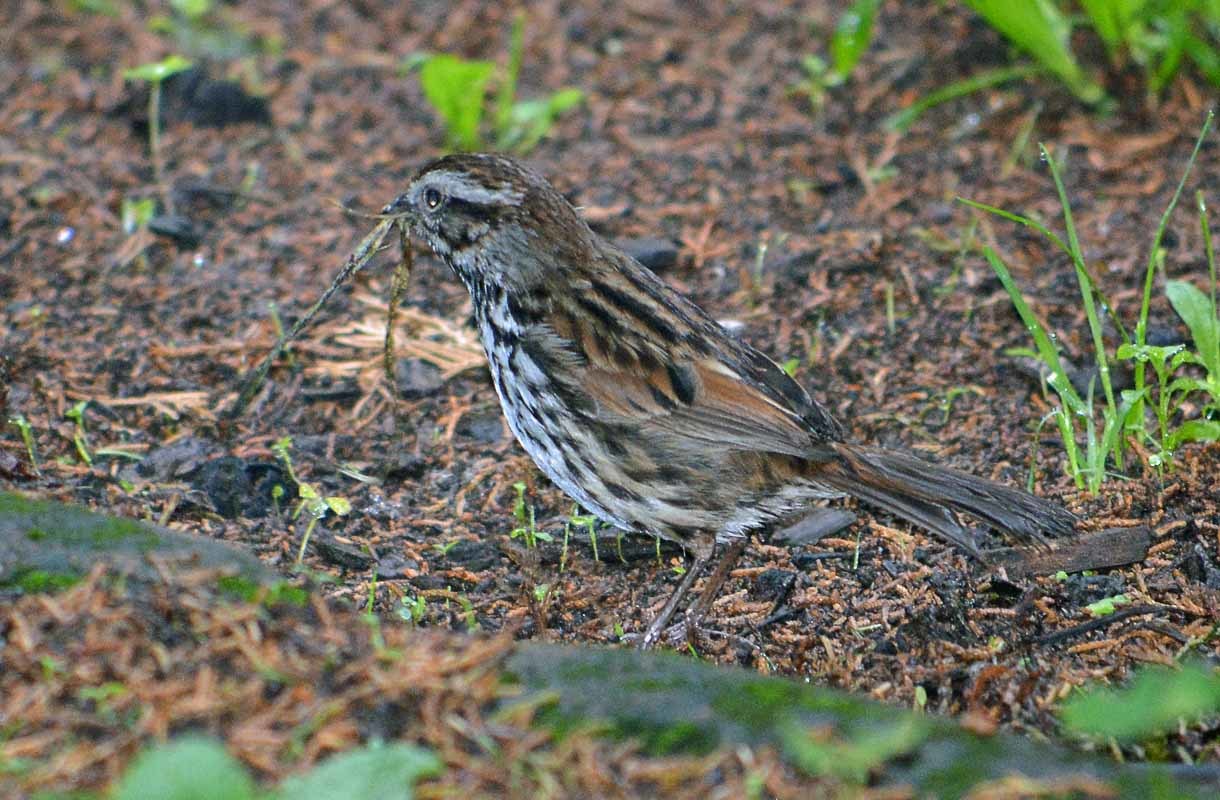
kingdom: Animalia
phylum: Chordata
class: Aves
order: Passeriformes
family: Passerellidae
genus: Melospiza
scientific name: Melospiza melodia
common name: Song sparrow
